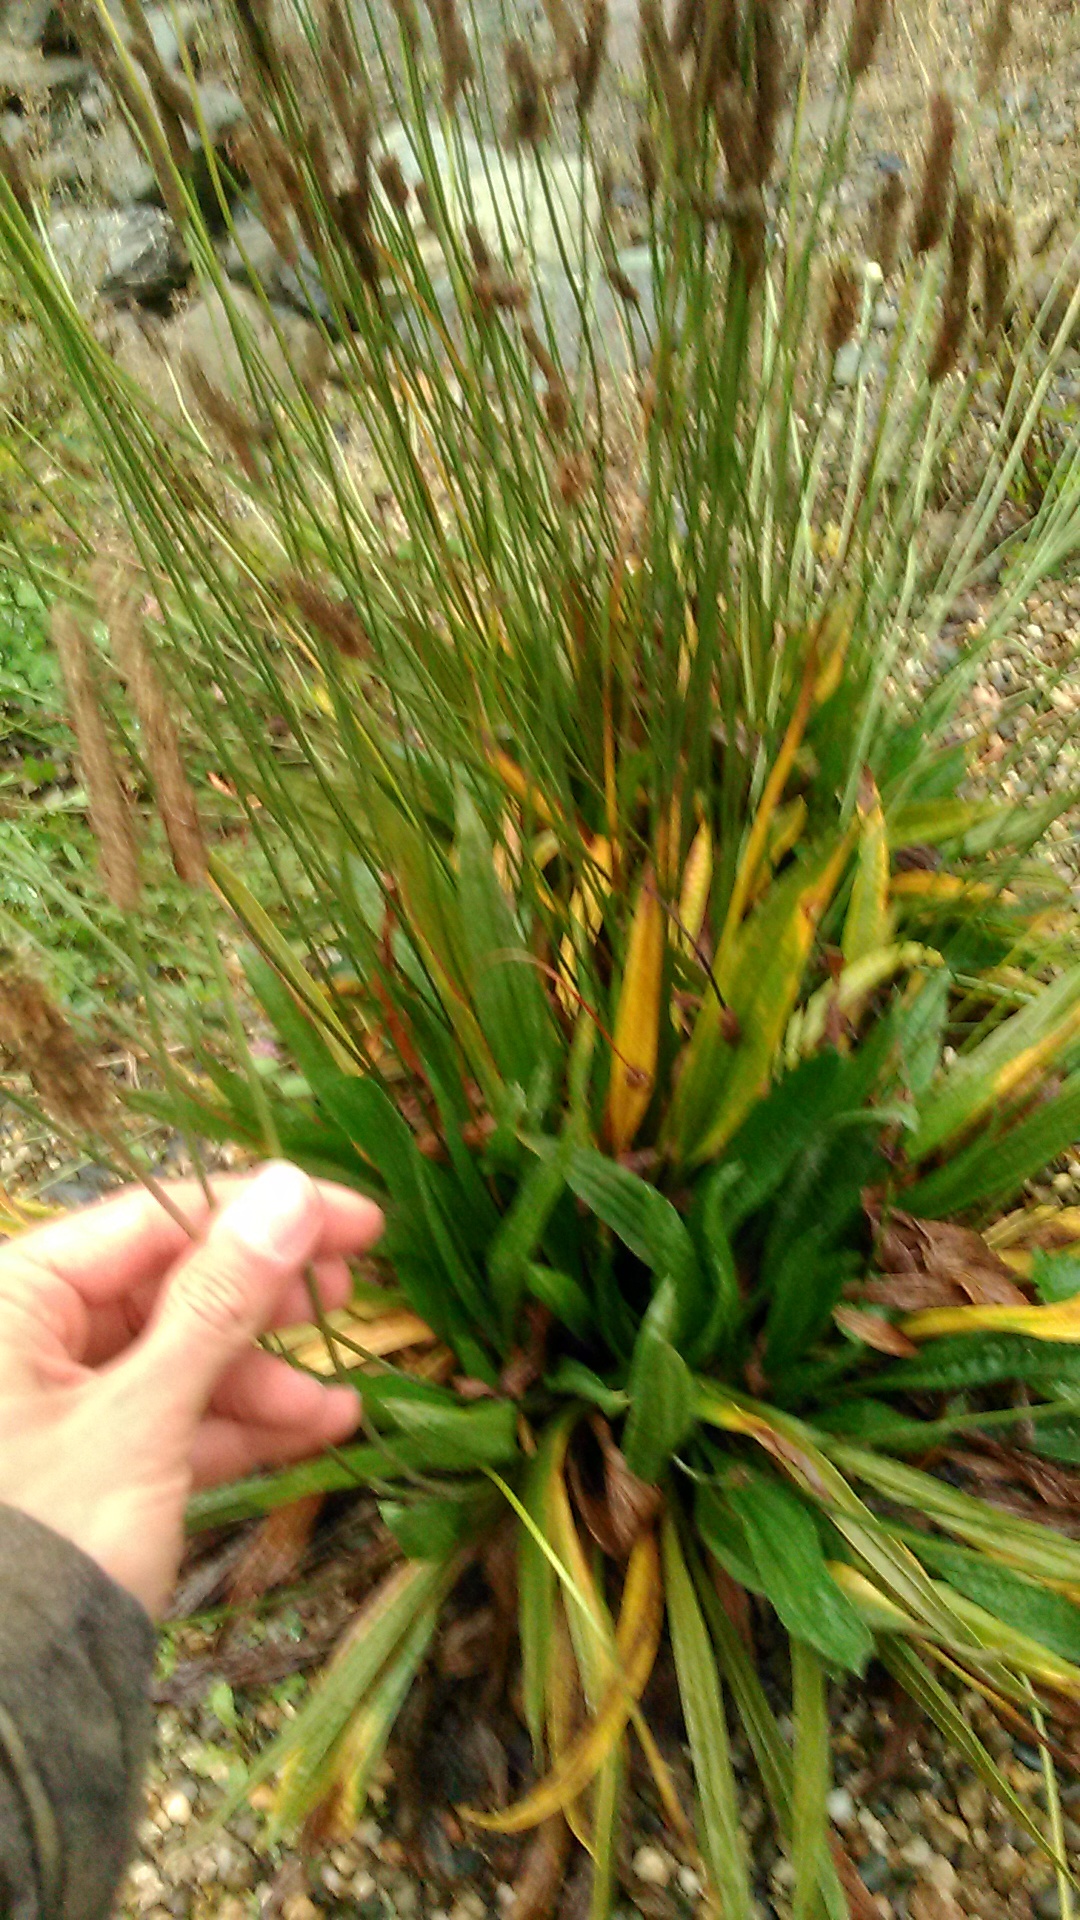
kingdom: Plantae
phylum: Tracheophyta
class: Magnoliopsida
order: Lamiales
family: Plantaginaceae
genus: Plantago
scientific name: Plantago lanceolata
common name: Ribwort plantain
